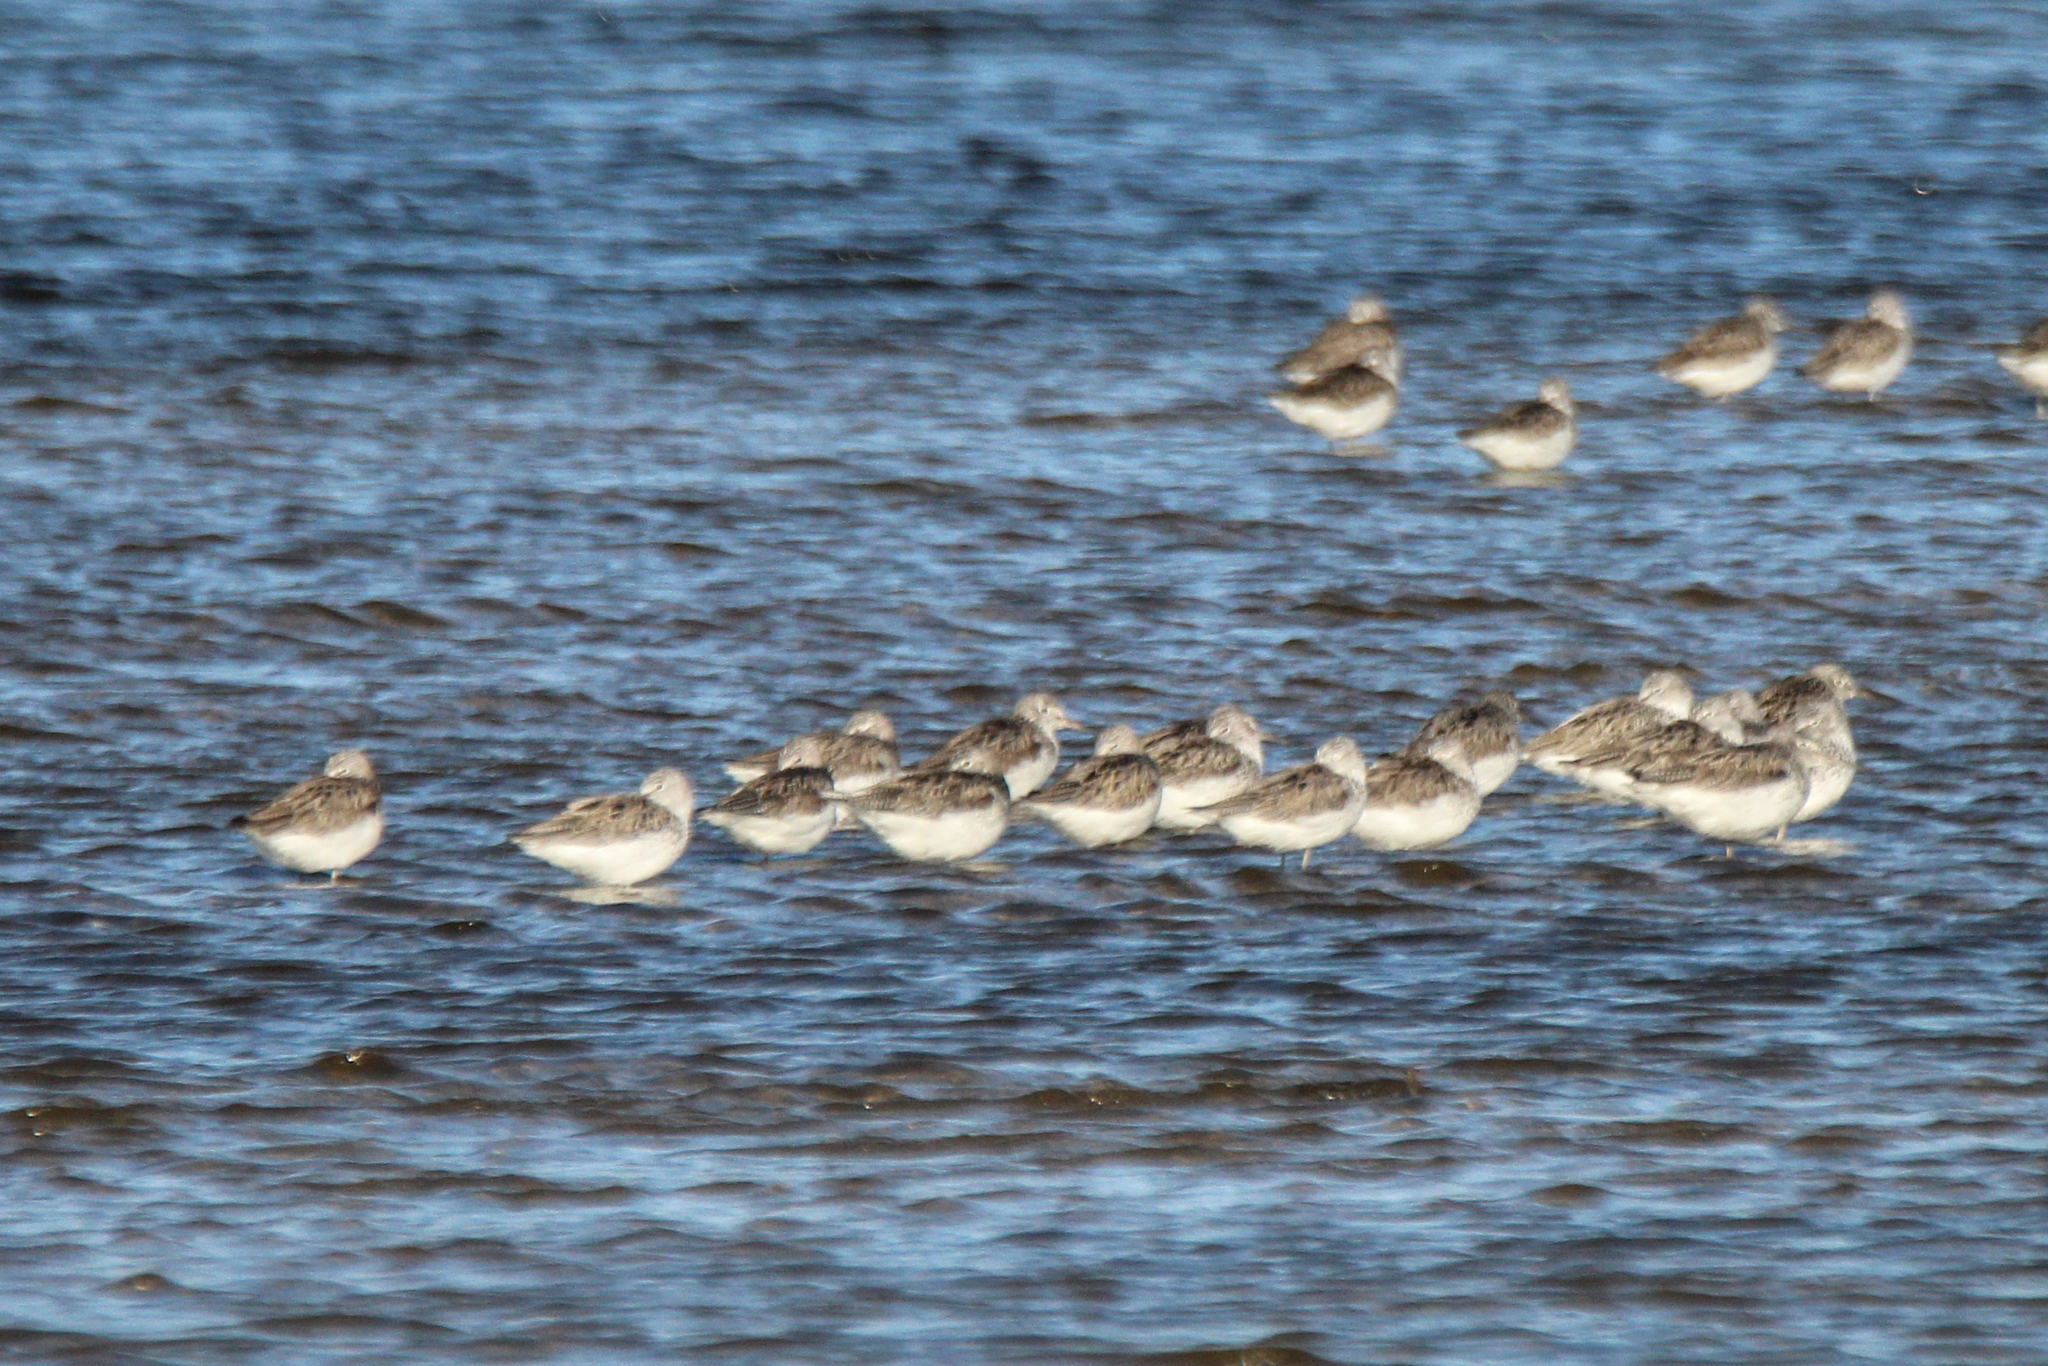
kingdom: Animalia
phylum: Chordata
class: Aves
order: Charadriiformes
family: Scolopacidae
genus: Tringa
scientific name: Tringa nebularia
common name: Common greenshank
